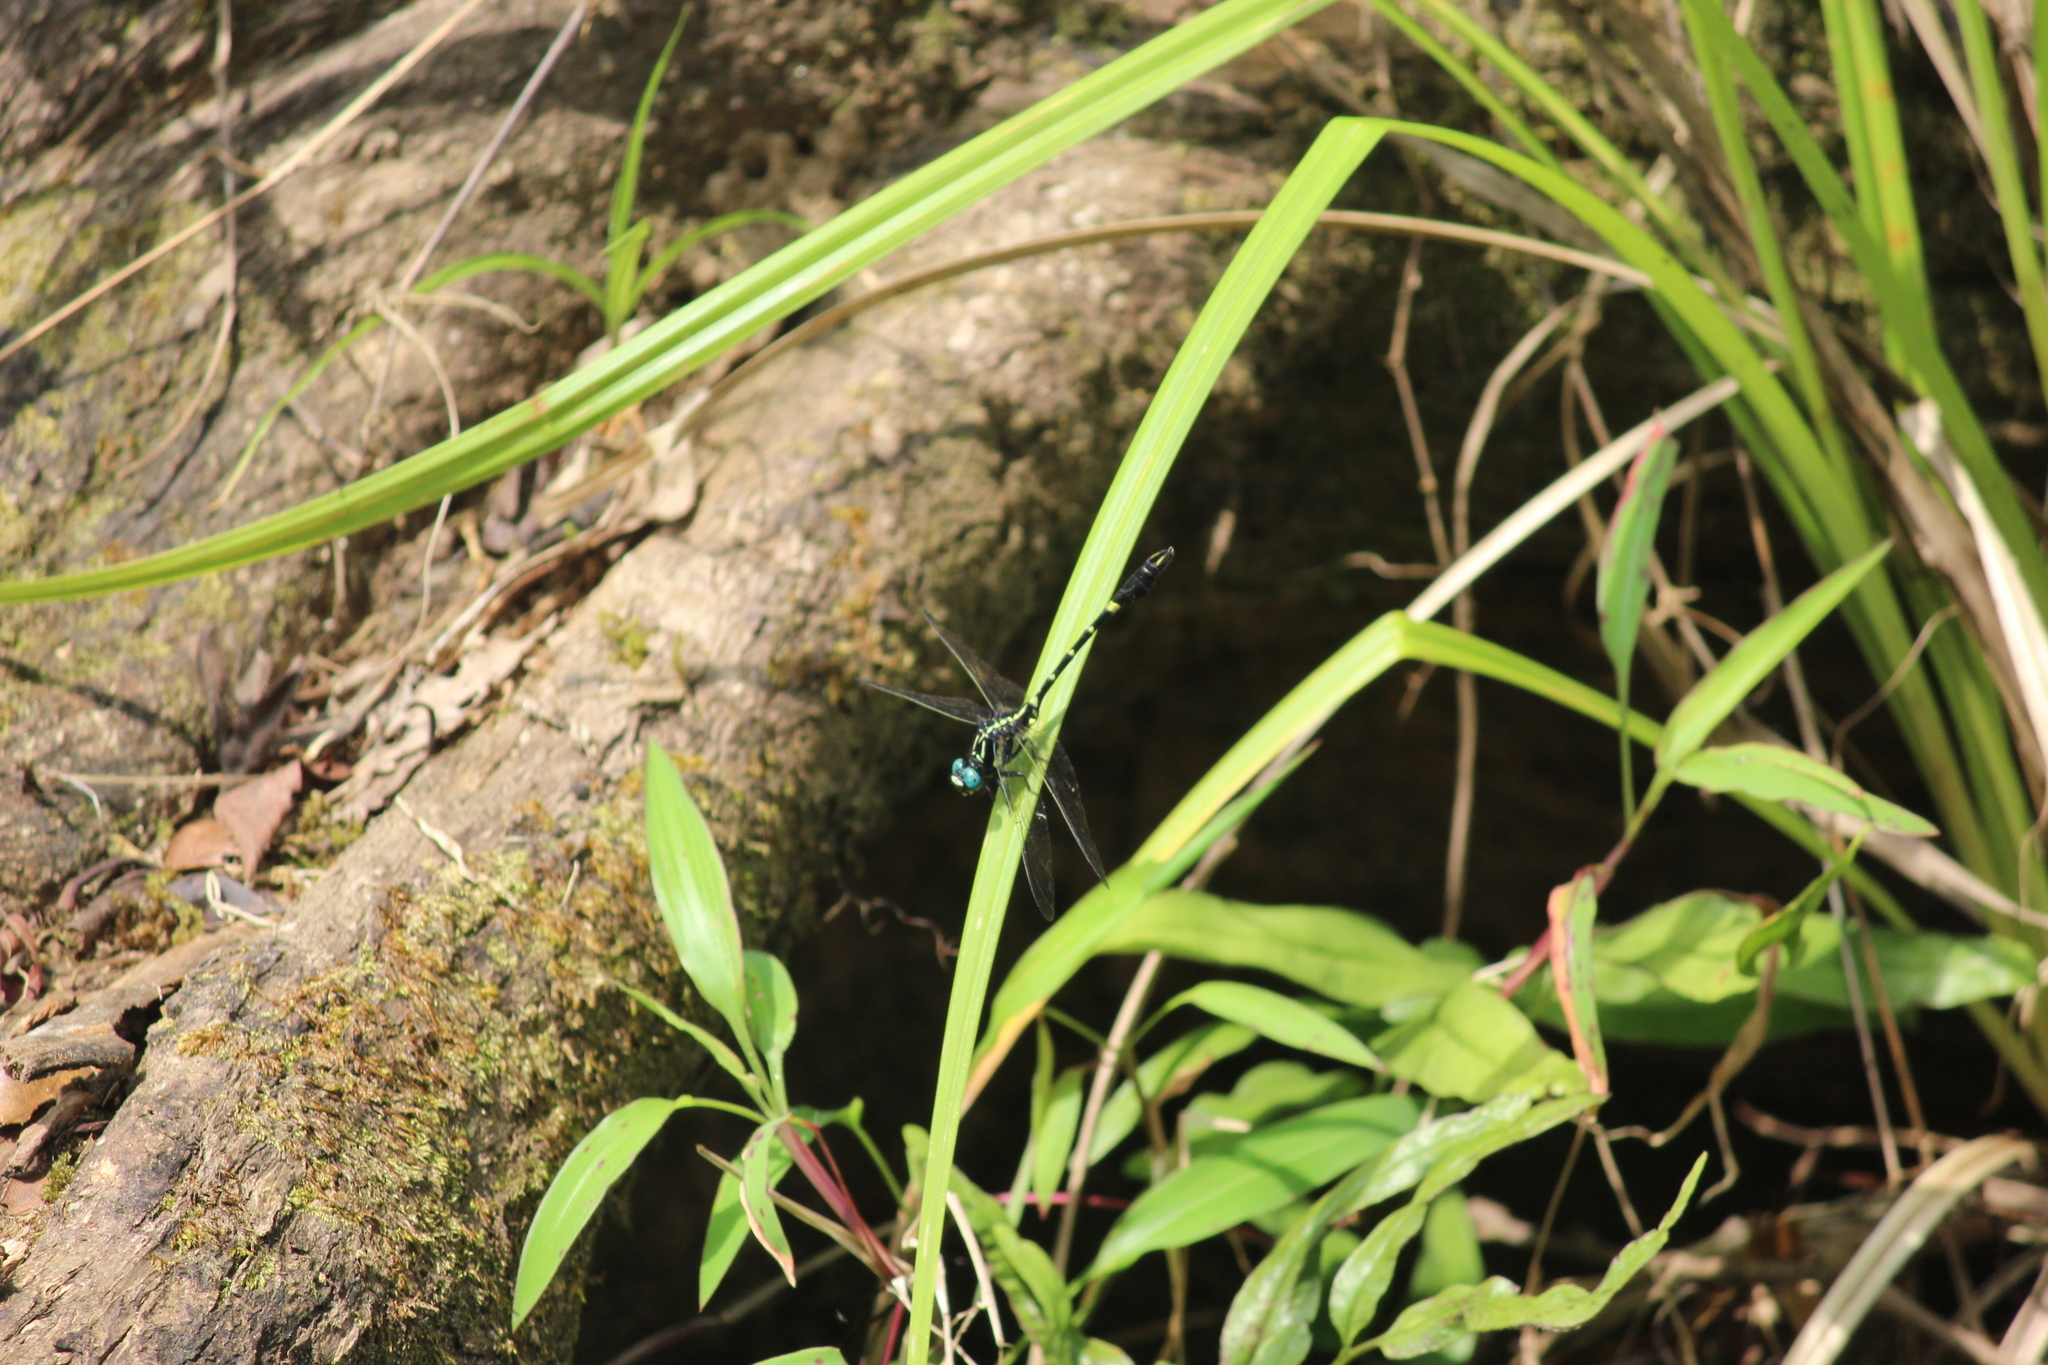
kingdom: Animalia
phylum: Arthropoda
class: Insecta
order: Odonata
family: Gomphidae
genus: Melligomphus
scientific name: Melligomphus acinaces
